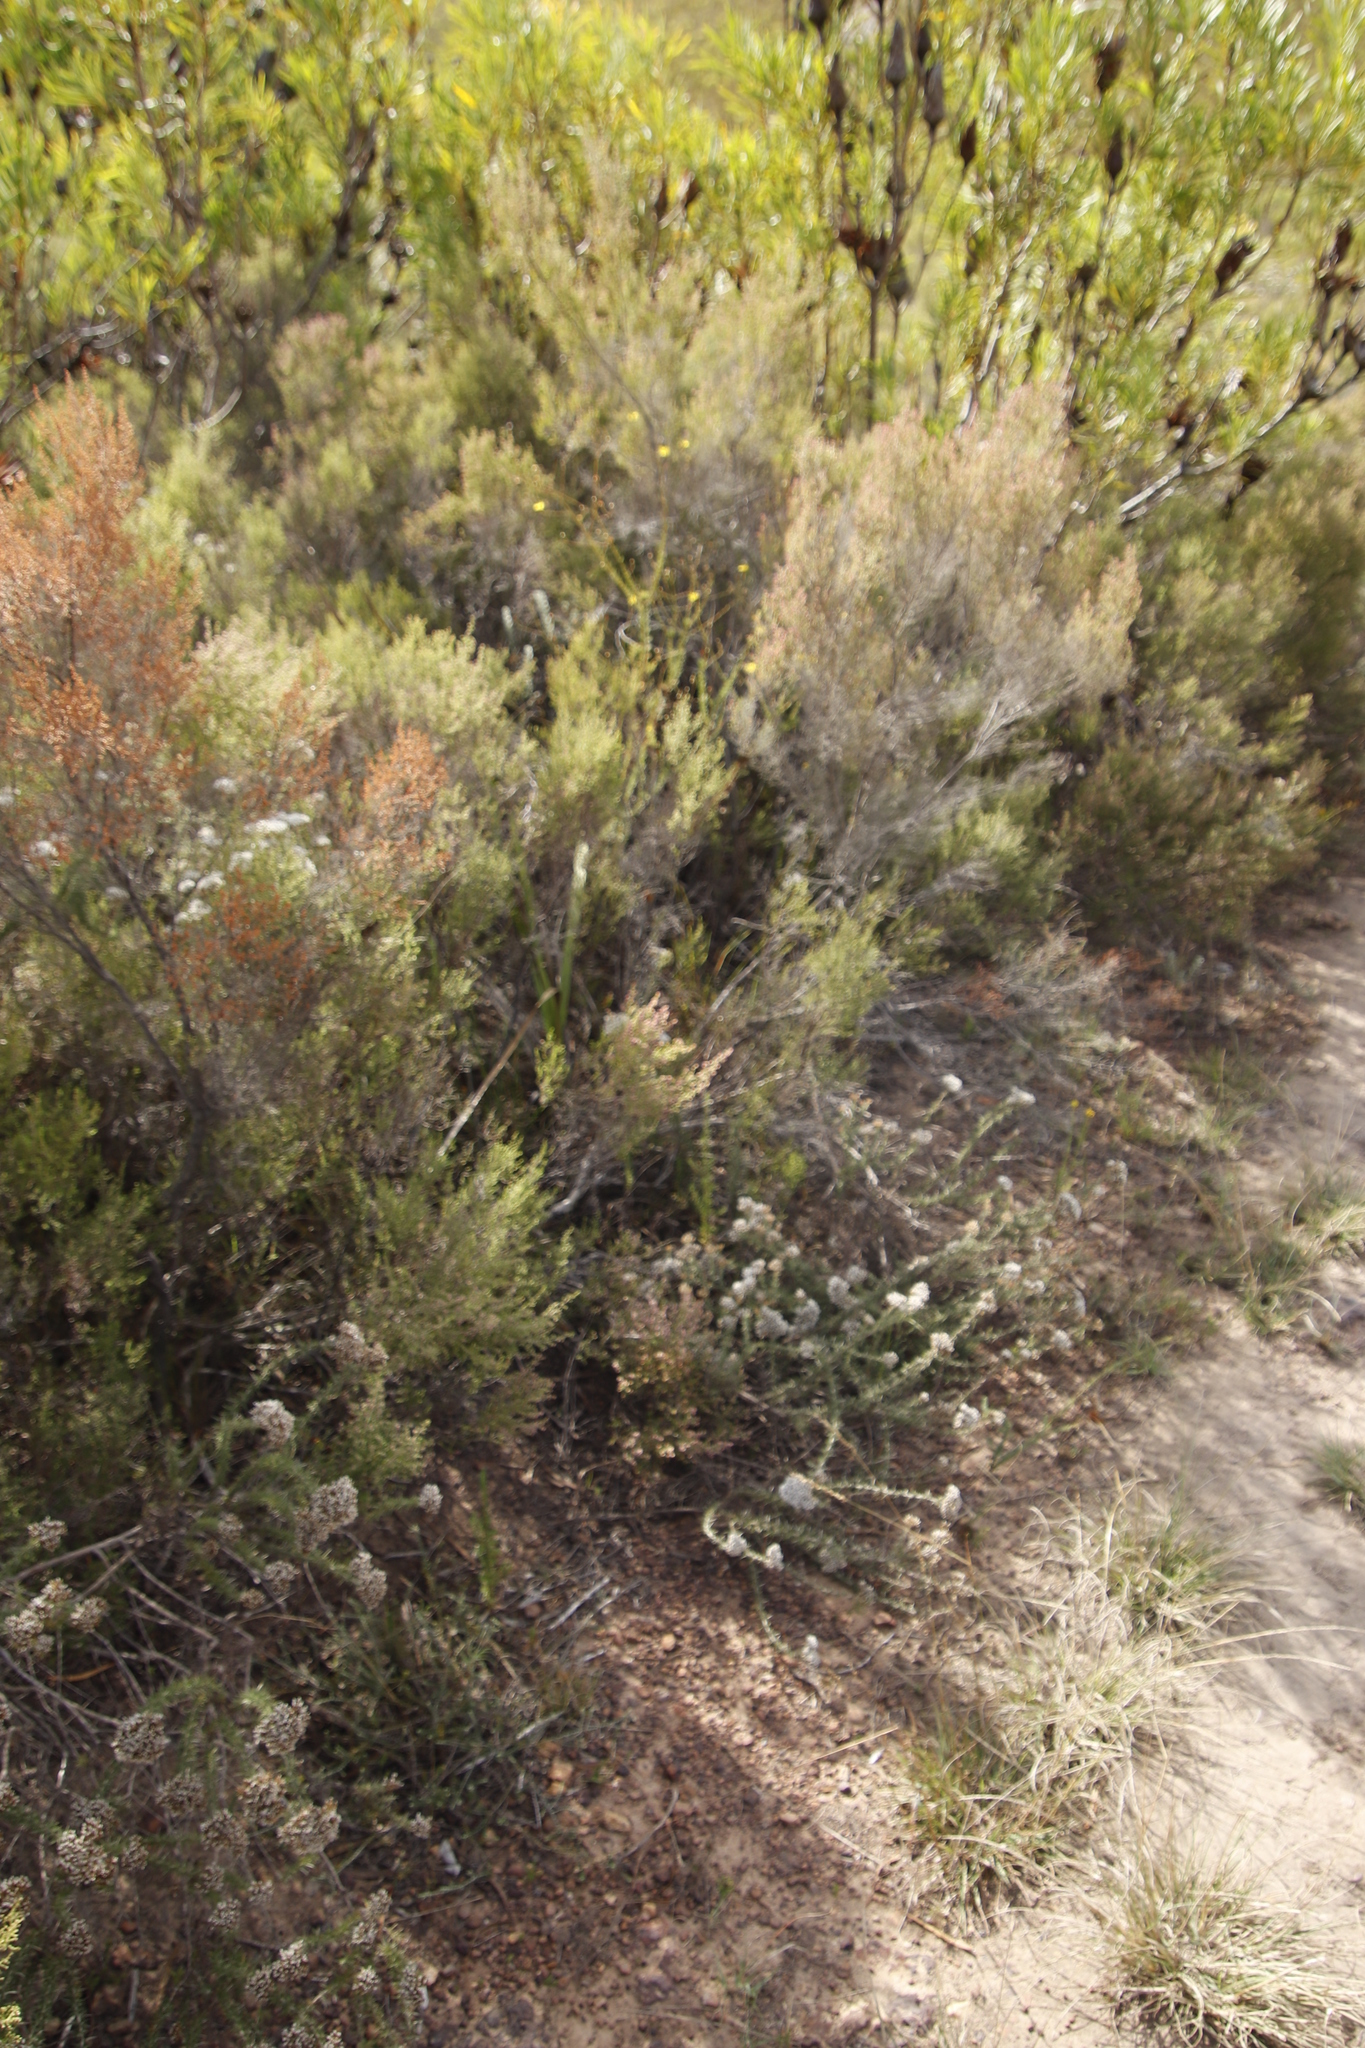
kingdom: Plantae
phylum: Tracheophyta
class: Magnoliopsida
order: Ericales
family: Ericaceae
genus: Erica
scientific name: Erica hispidula
